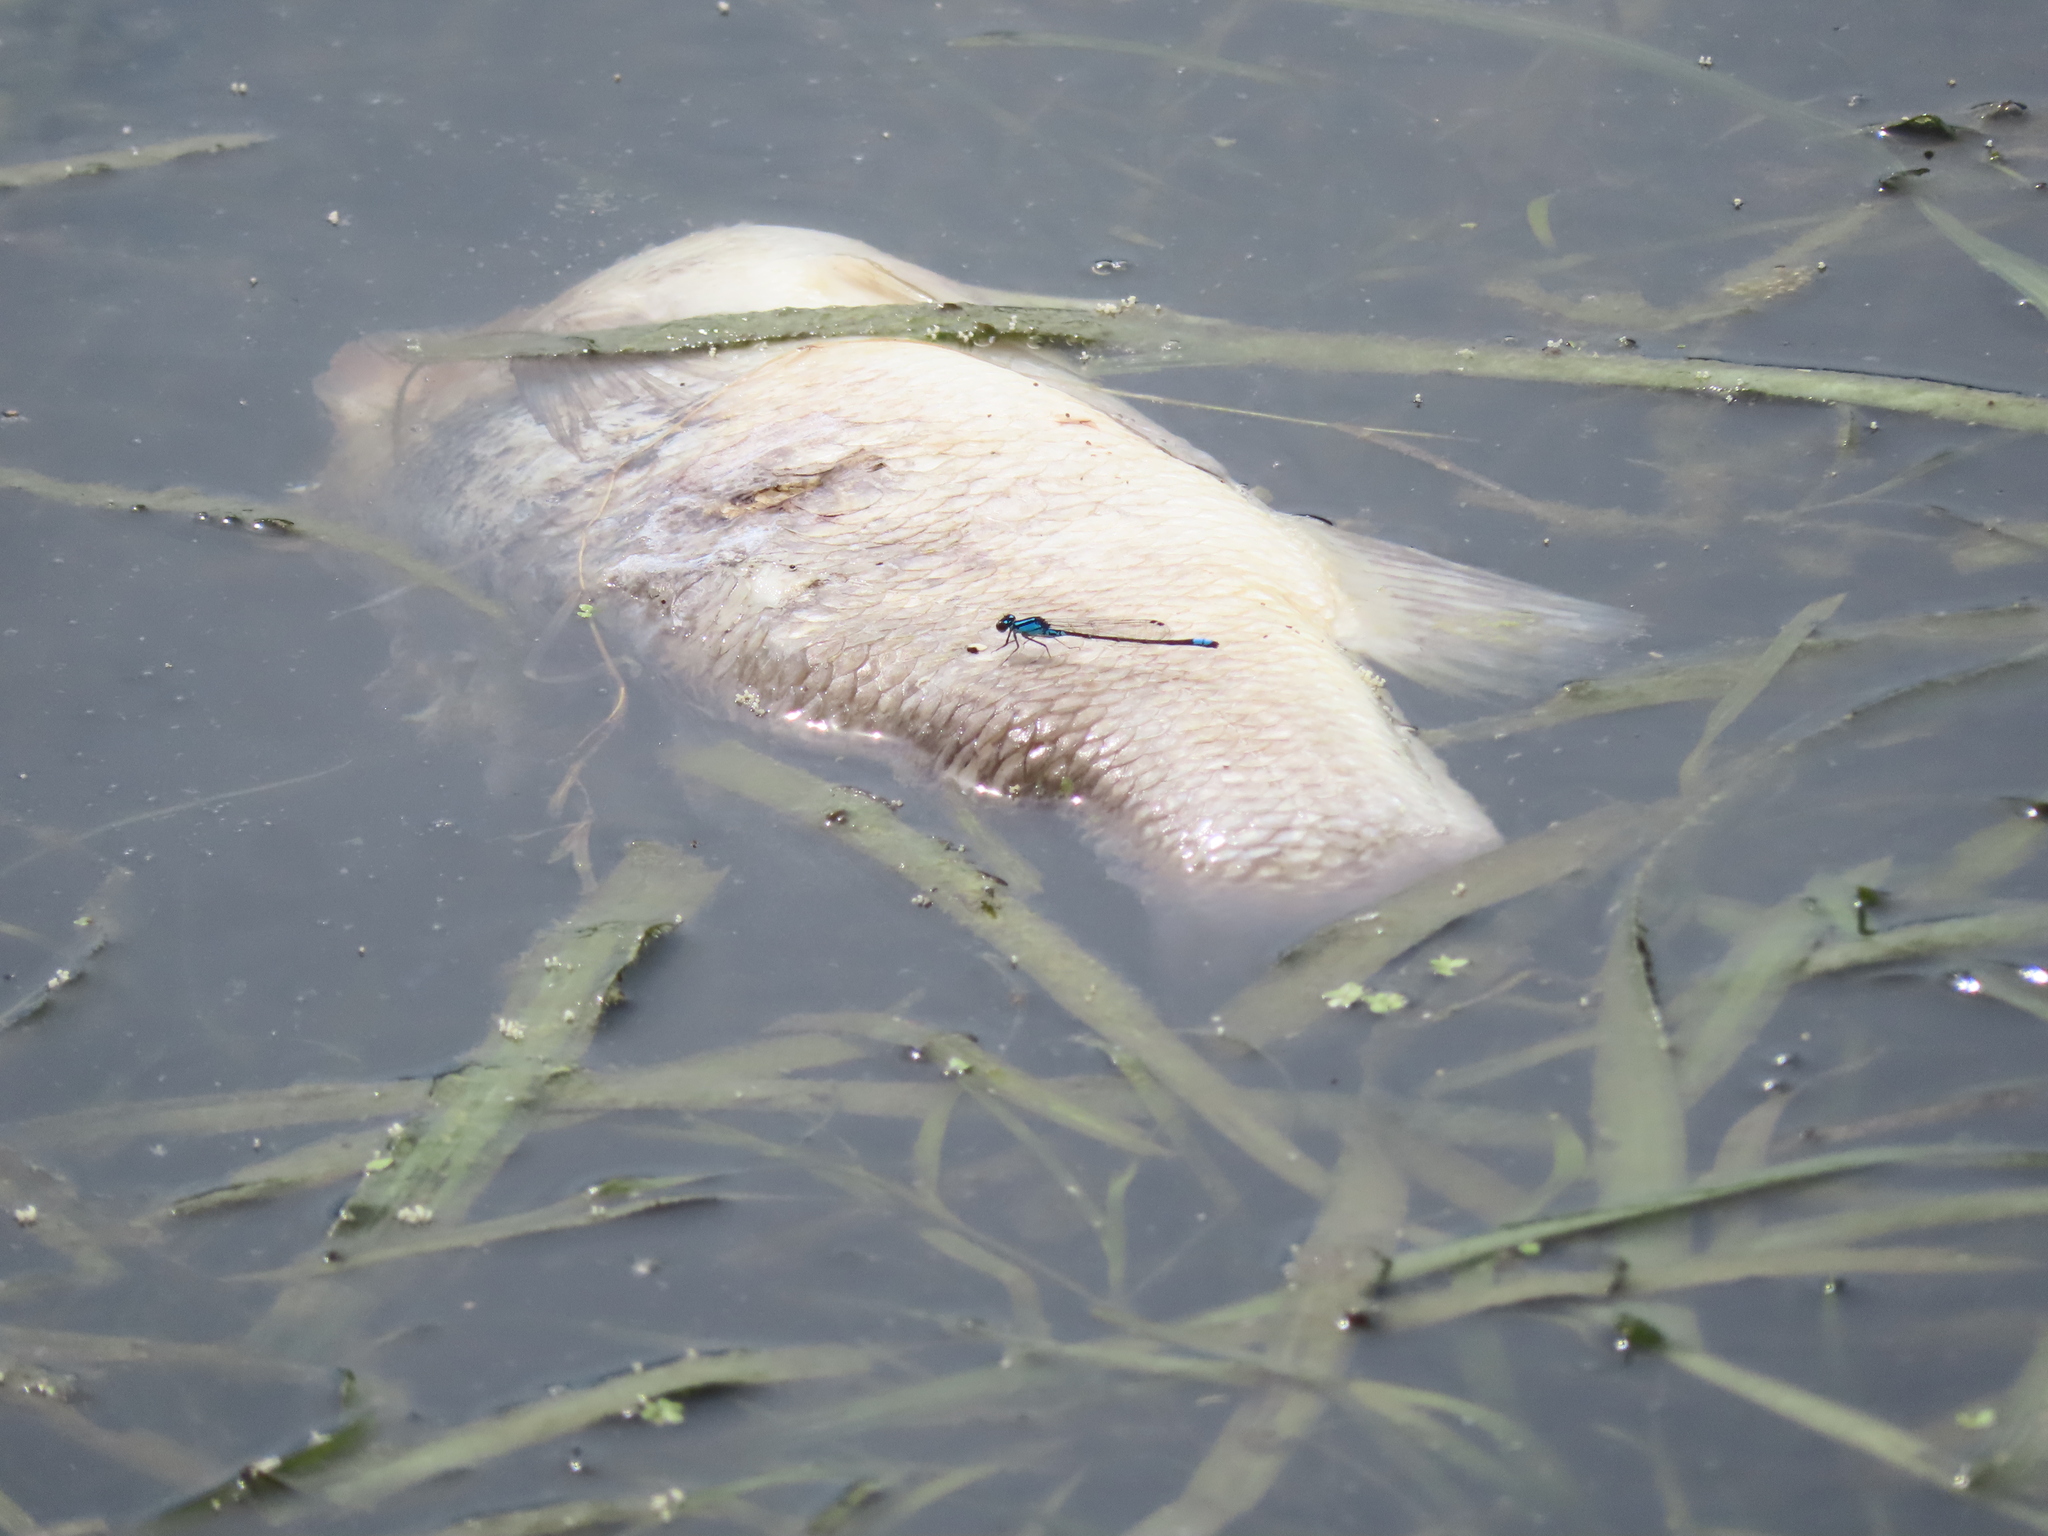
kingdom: Animalia
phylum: Arthropoda
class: Insecta
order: Odonata
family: Coenagrionidae
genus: Enallagma
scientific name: Enallagma geminatum
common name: Skimming bluet
